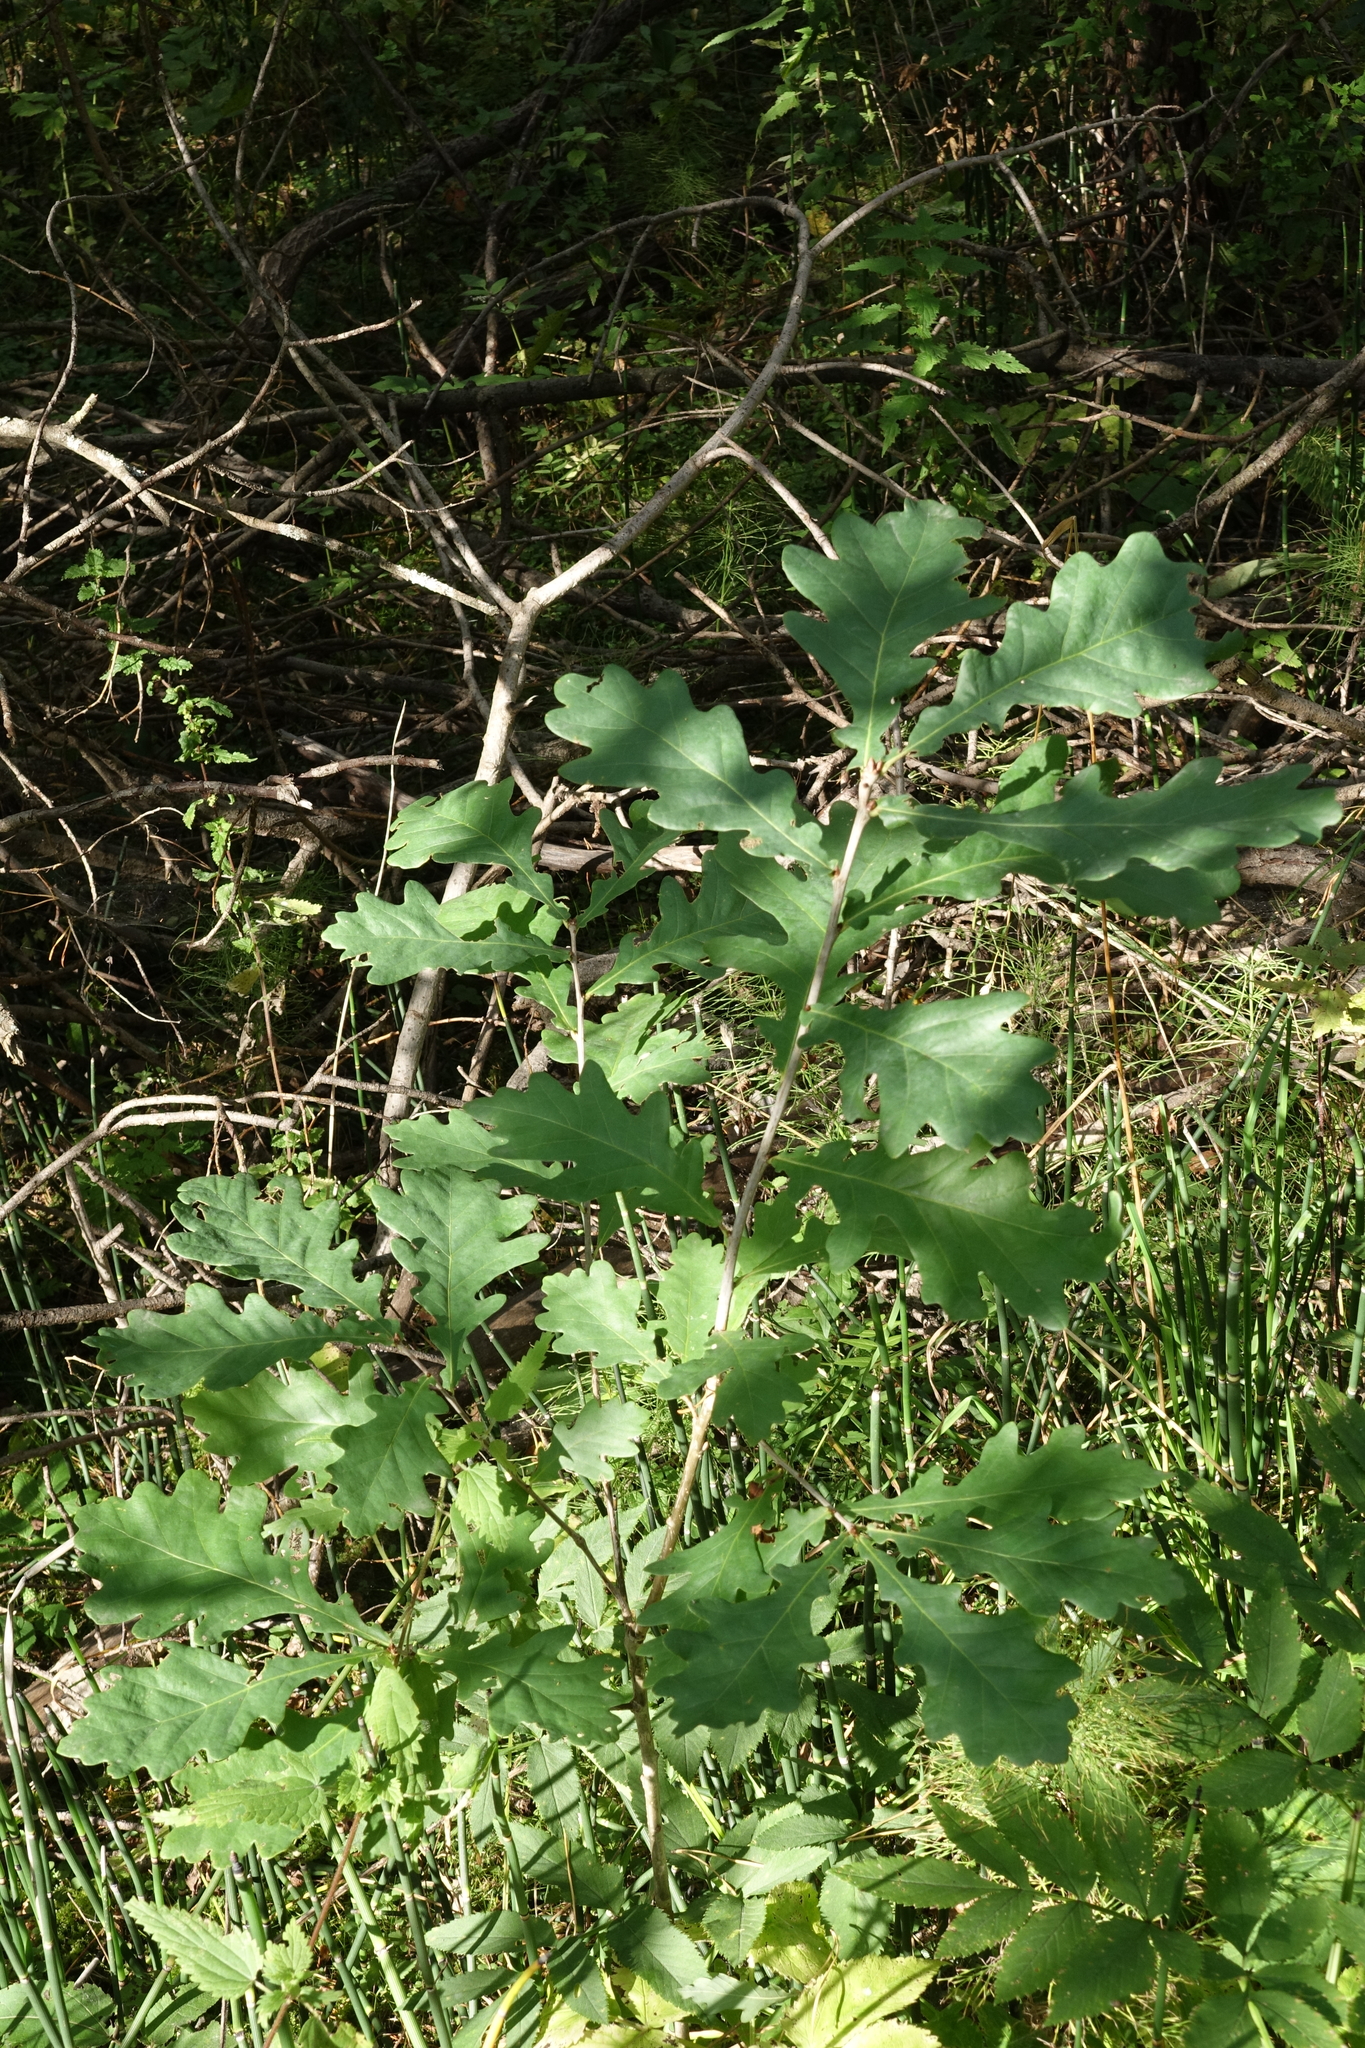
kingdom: Plantae
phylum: Tracheophyta
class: Magnoliopsida
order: Fagales
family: Fagaceae
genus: Quercus
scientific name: Quercus robur
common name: Pedunculate oak
